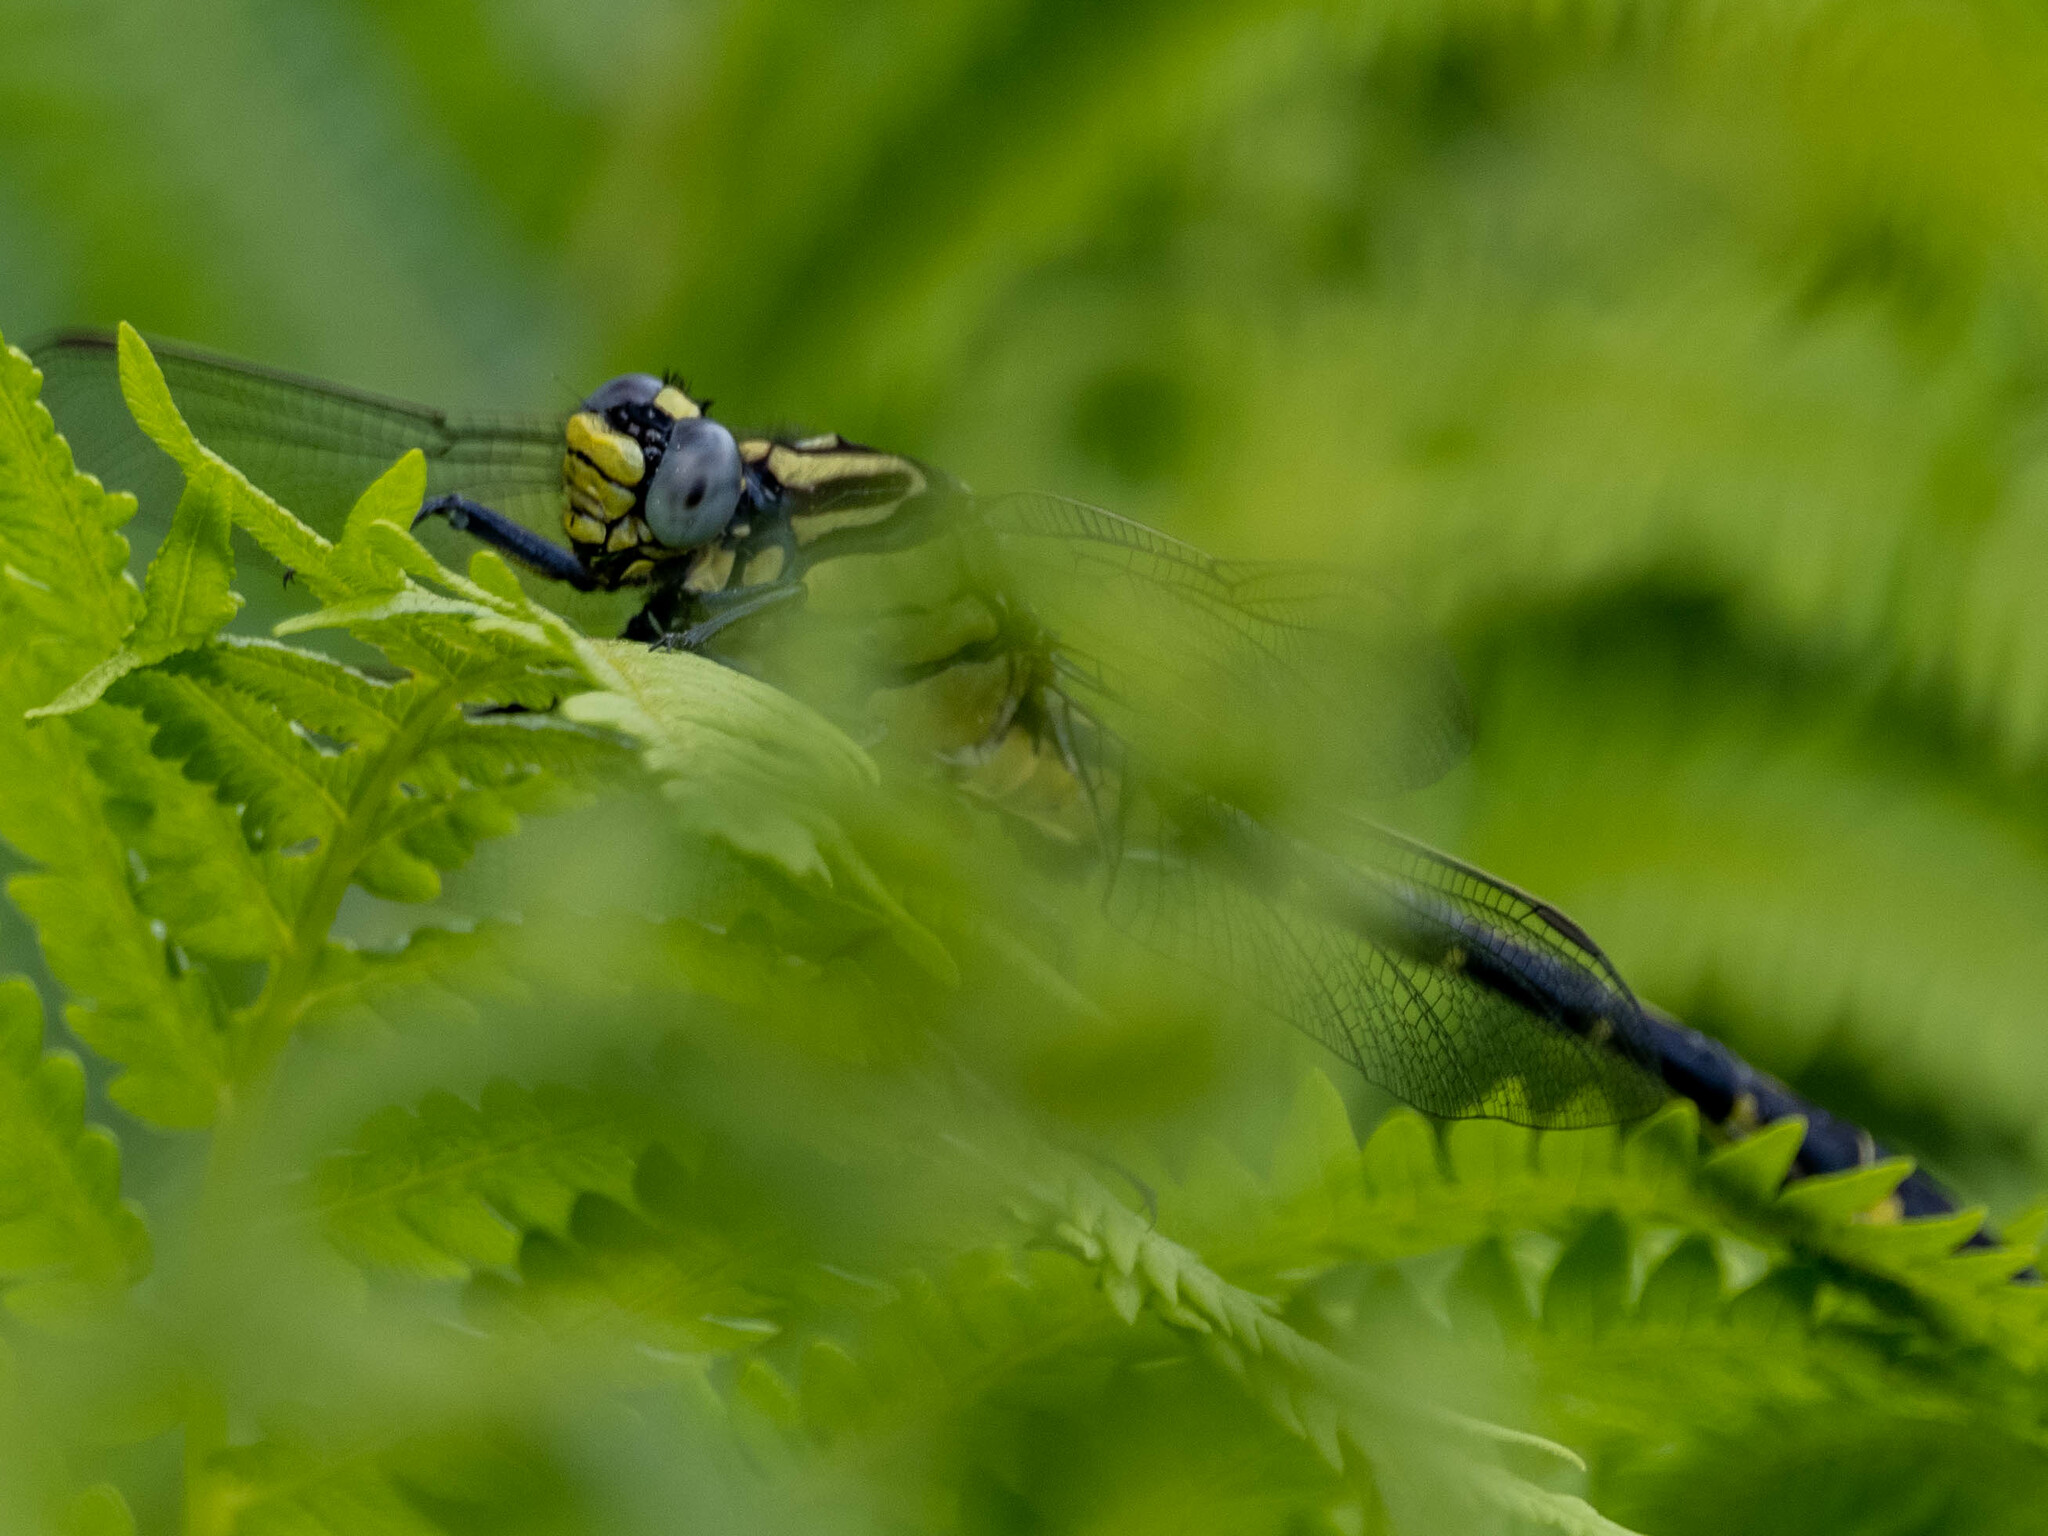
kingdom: Animalia
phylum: Arthropoda
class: Insecta
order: Odonata
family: Gomphidae
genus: Gomphurus
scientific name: Gomphurus lineatifrons
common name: Splendid clubtail
